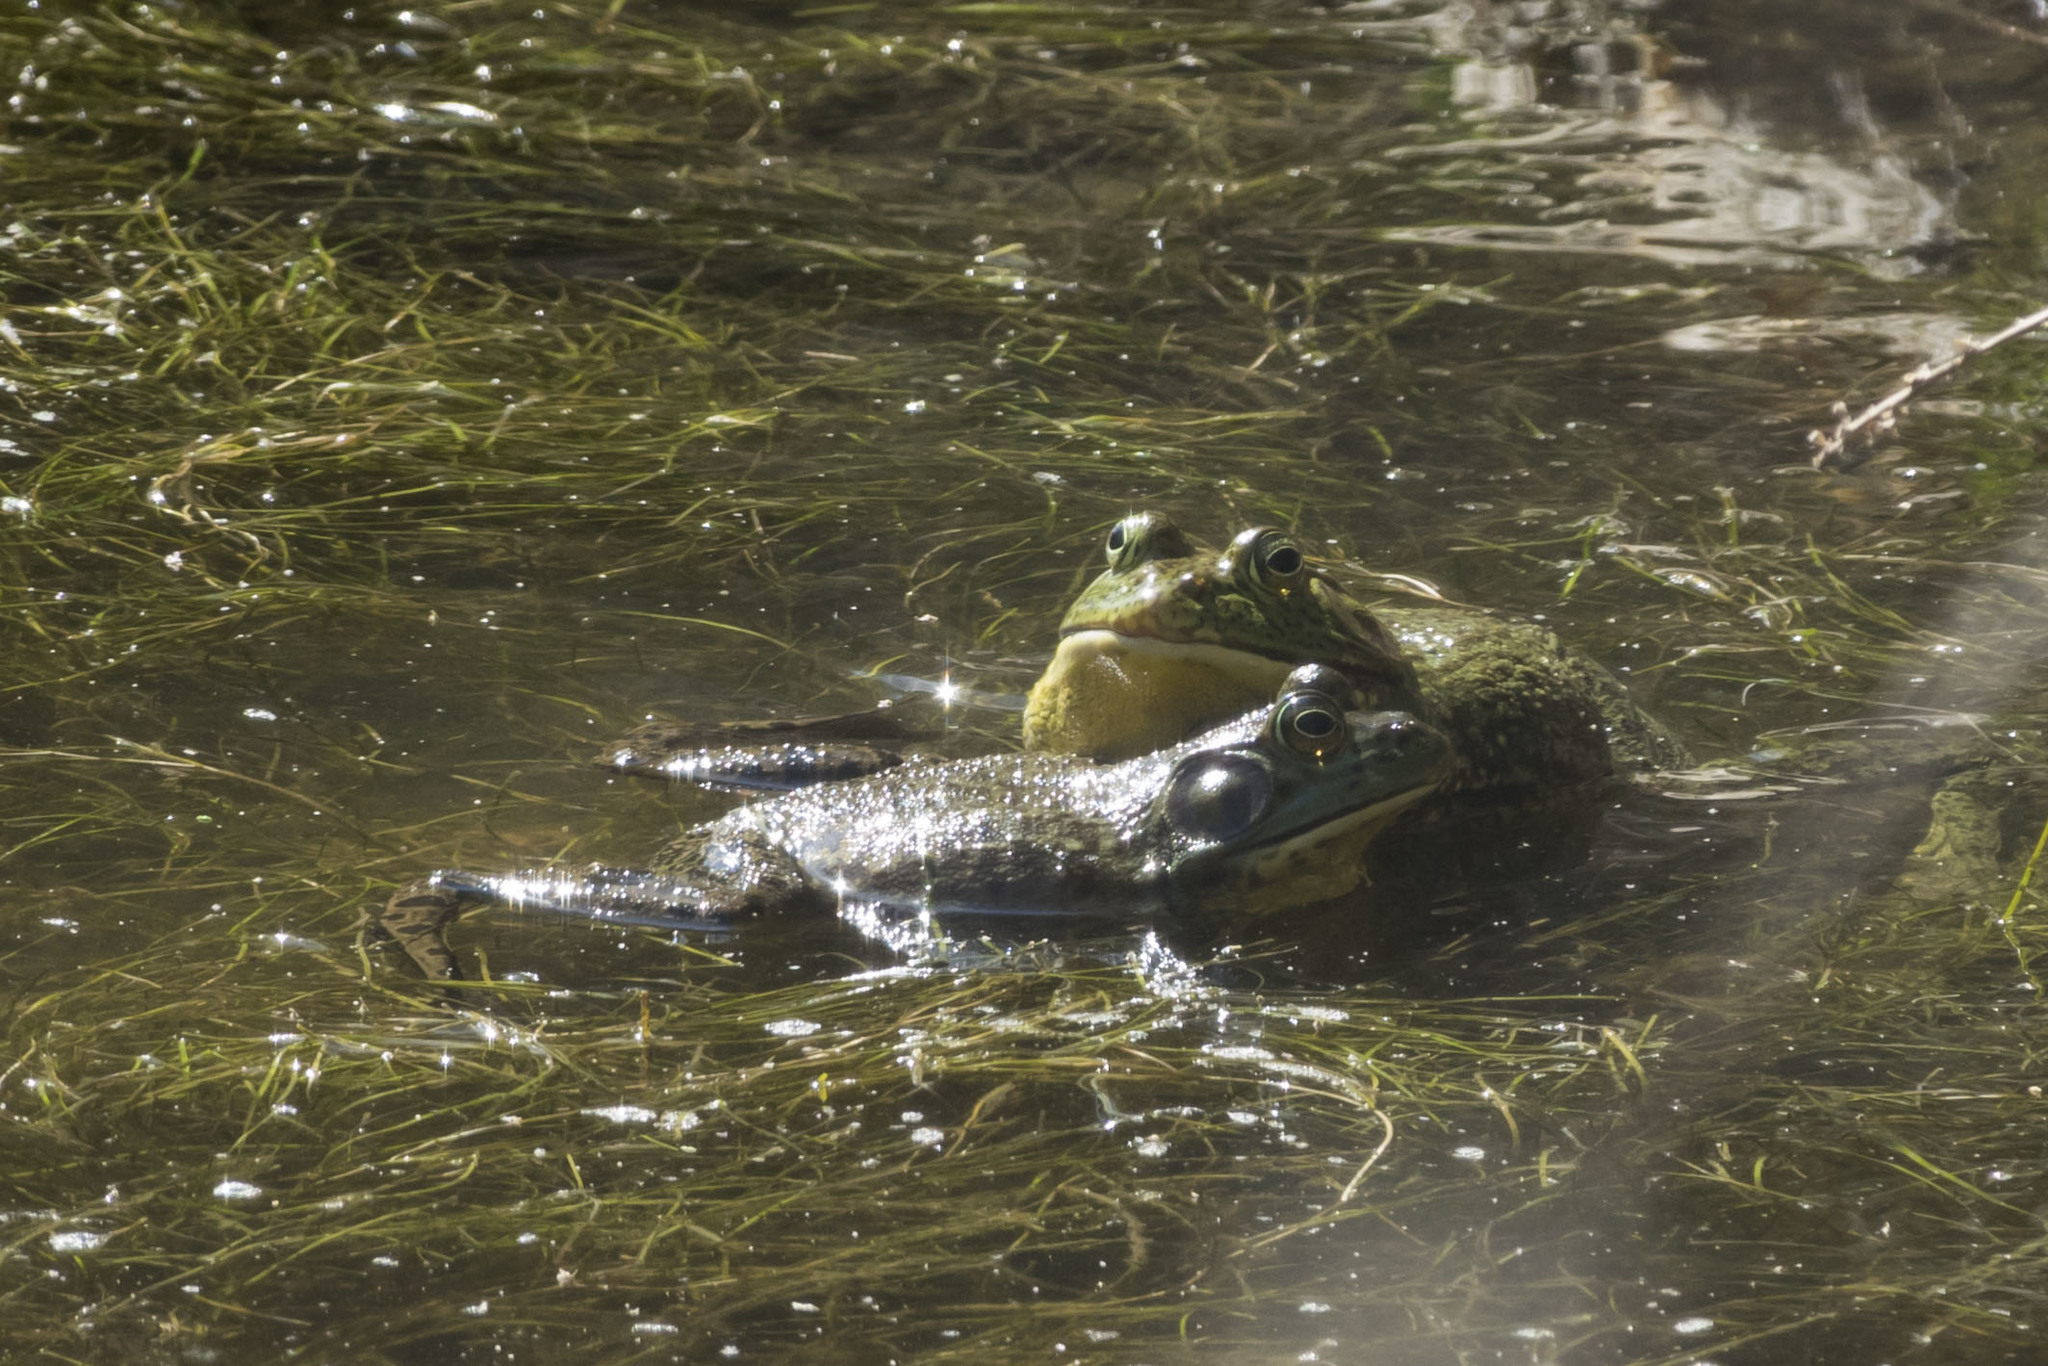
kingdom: Animalia
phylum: Chordata
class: Amphibia
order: Anura
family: Ranidae
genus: Lithobates
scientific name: Lithobates catesbeianus
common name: American bullfrog
